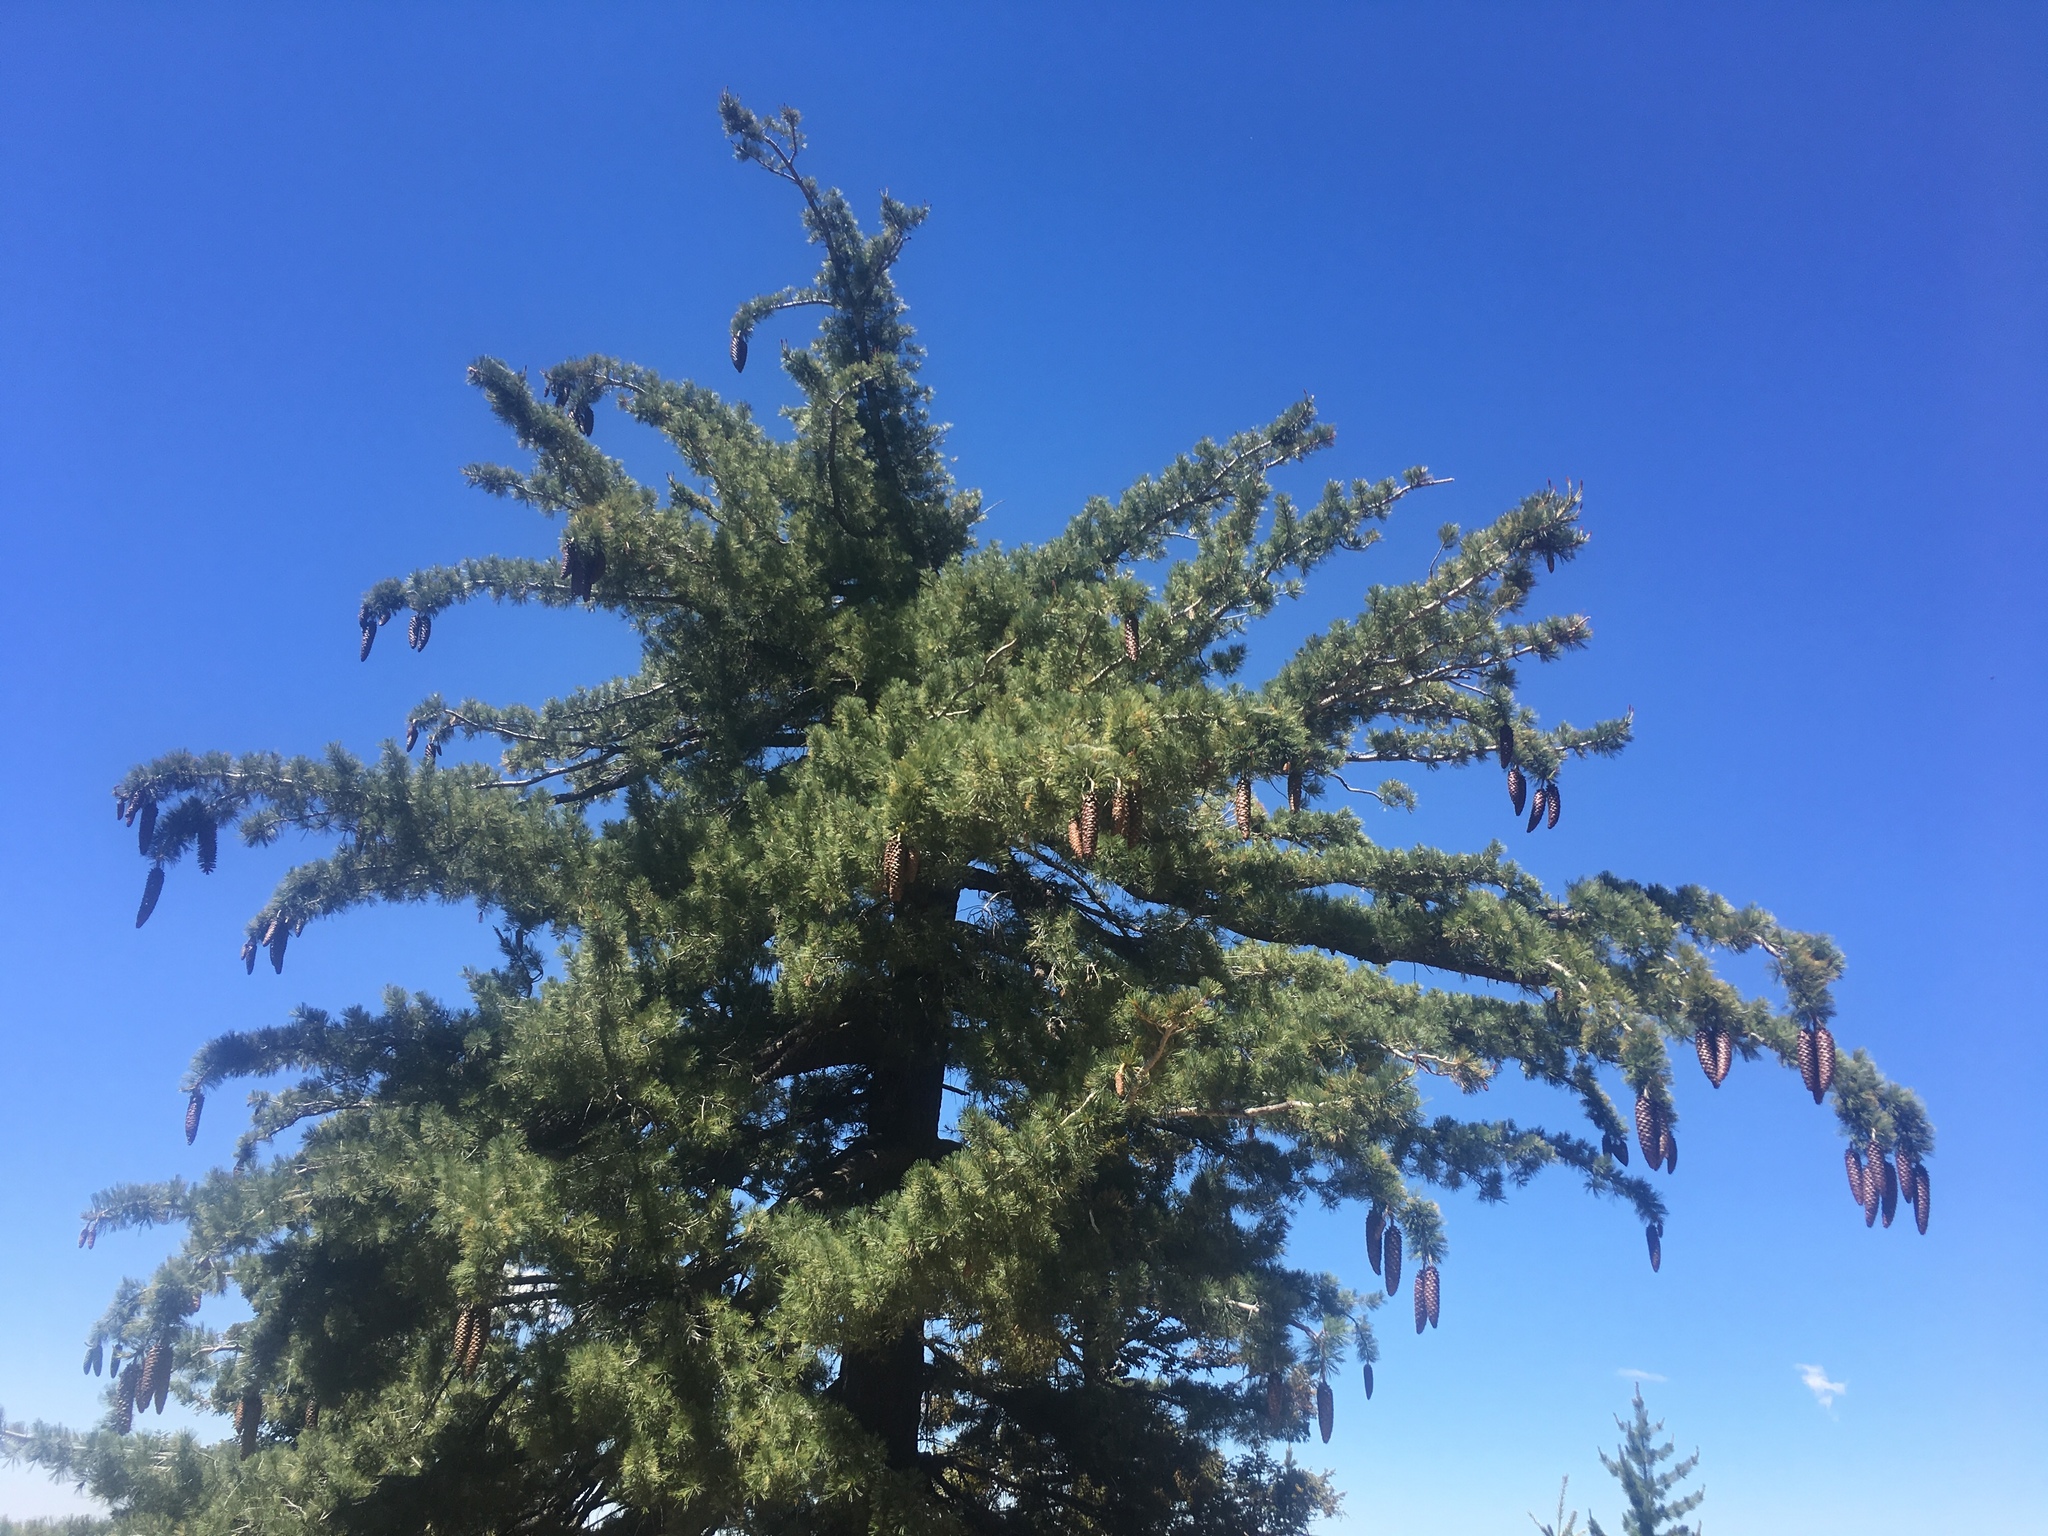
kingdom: Plantae
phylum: Tracheophyta
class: Pinopsida
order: Pinales
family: Pinaceae
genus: Pinus
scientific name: Pinus lambertiana
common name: Sugar pine
